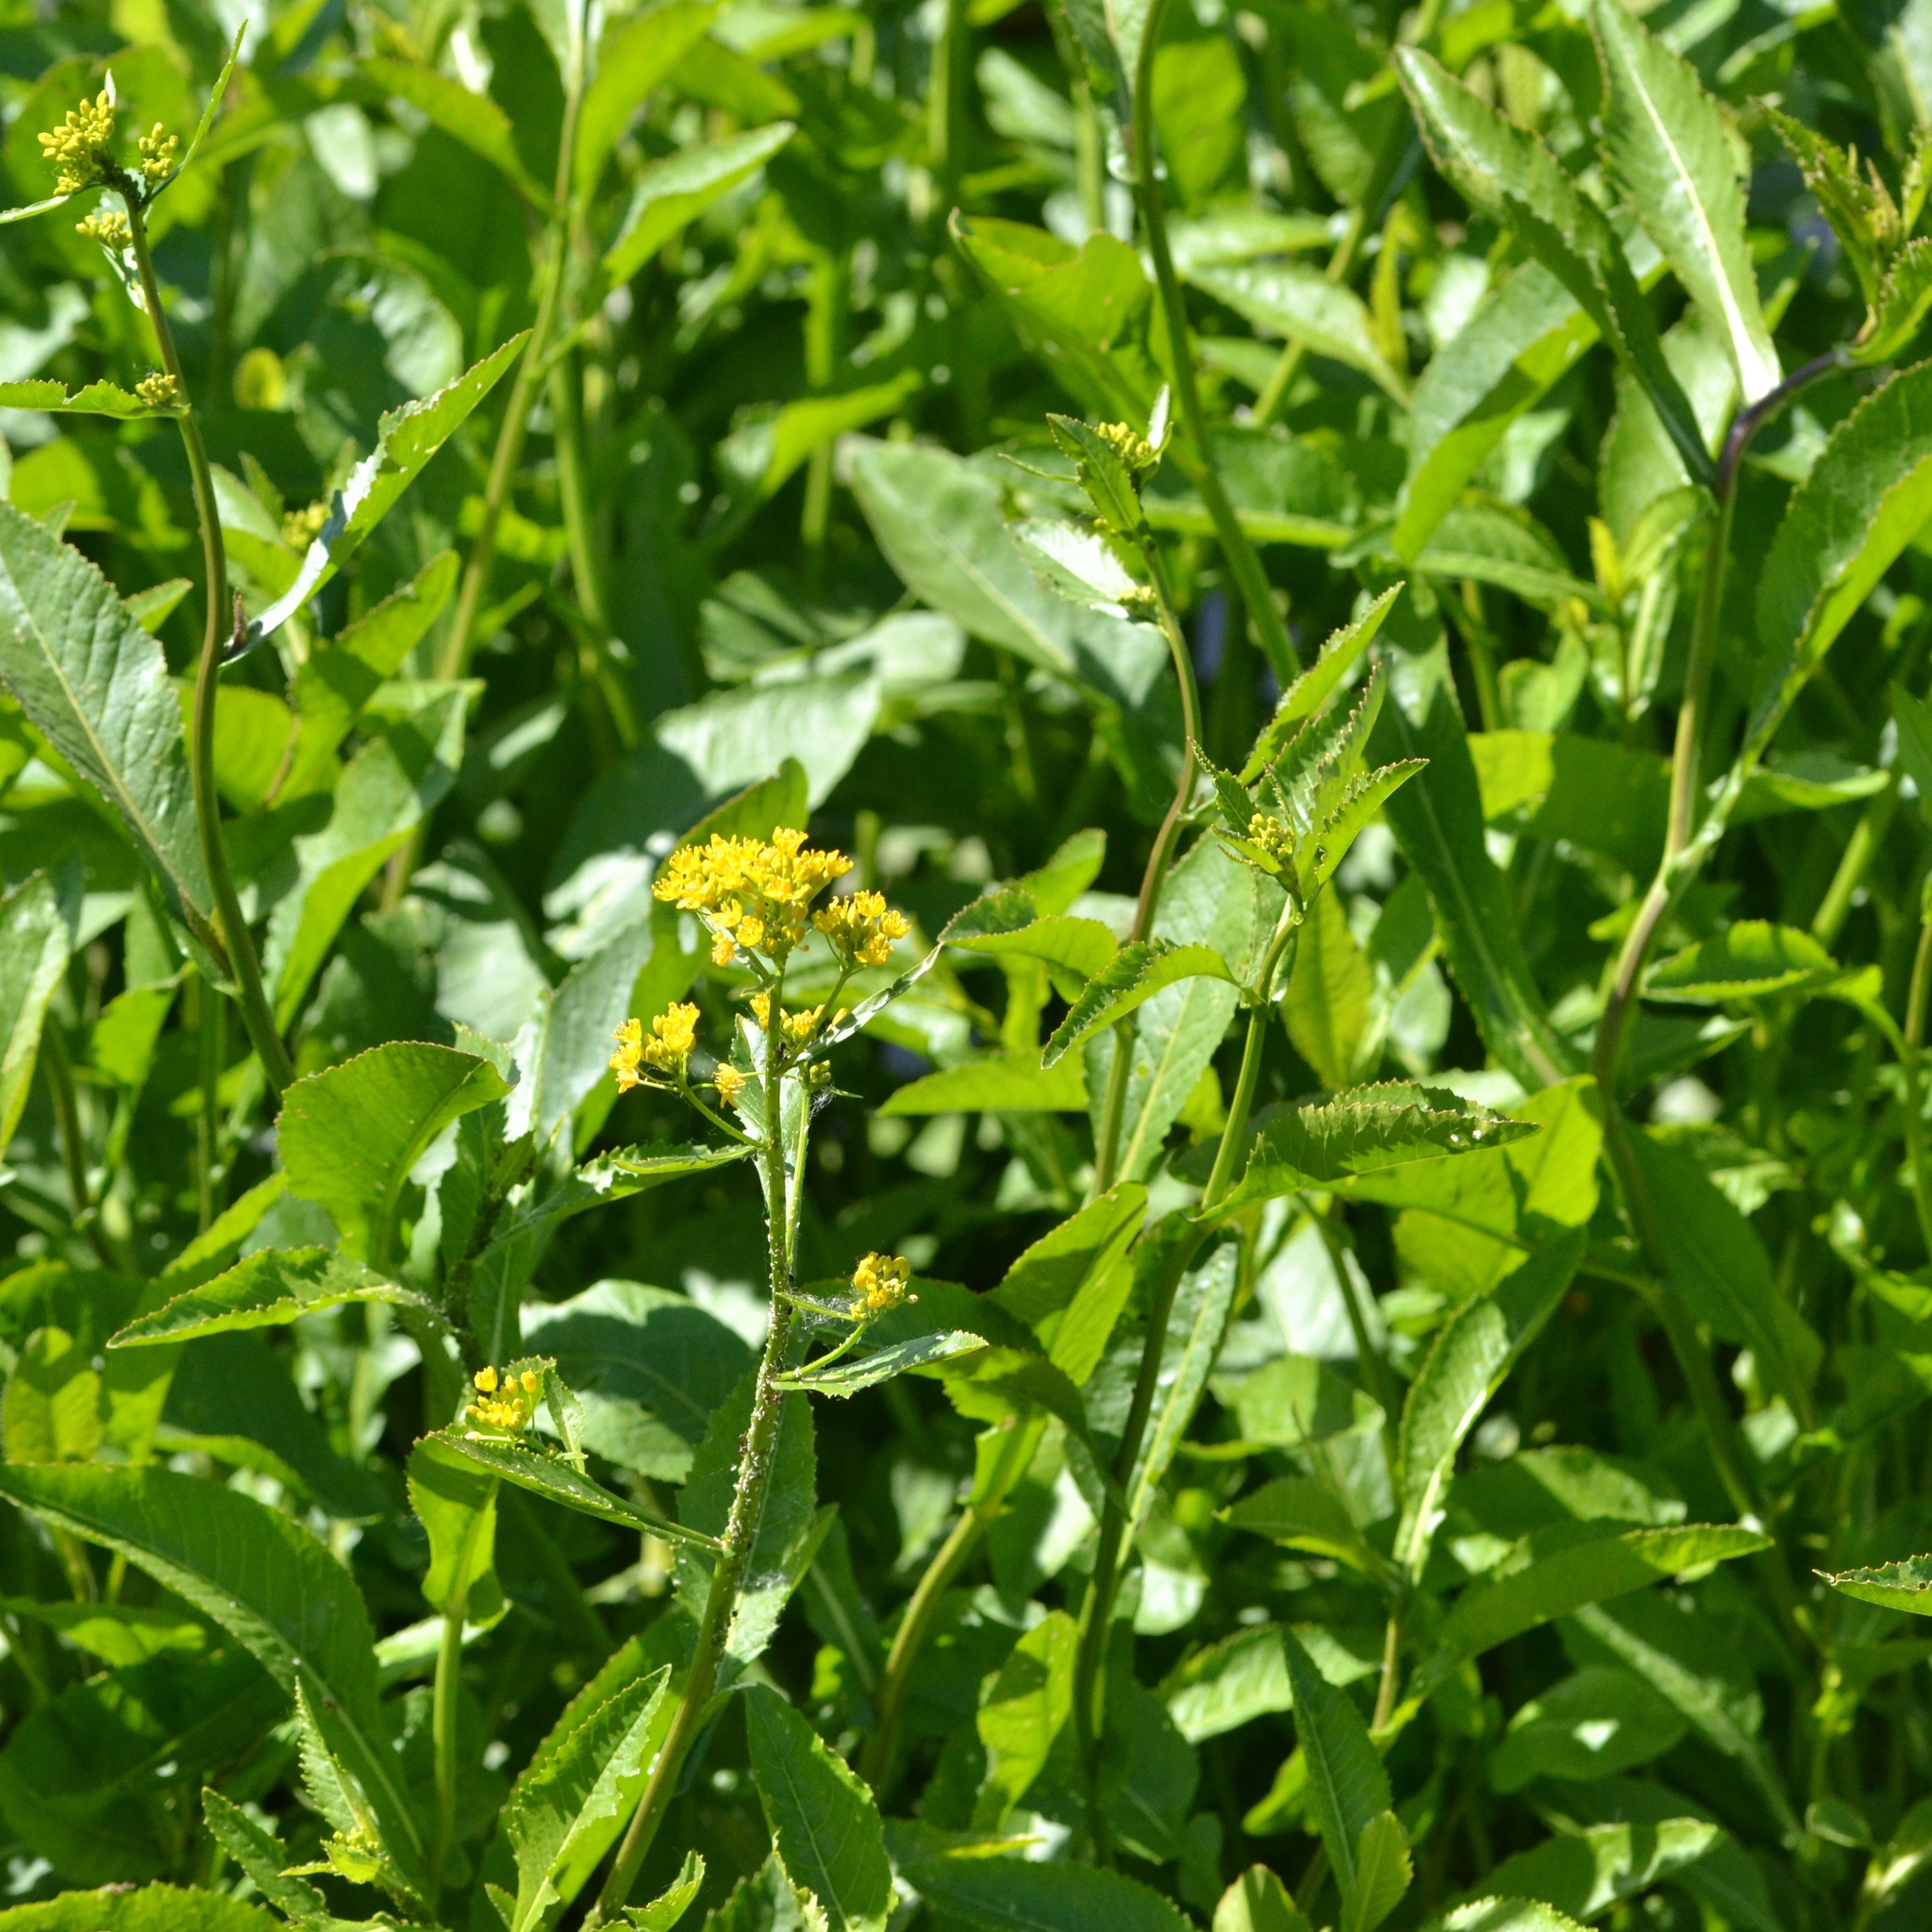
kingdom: Plantae
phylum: Tracheophyta
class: Magnoliopsida
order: Brassicales
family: Brassicaceae
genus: Rorippa
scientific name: Rorippa amphibia
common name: Great yellow-cress
